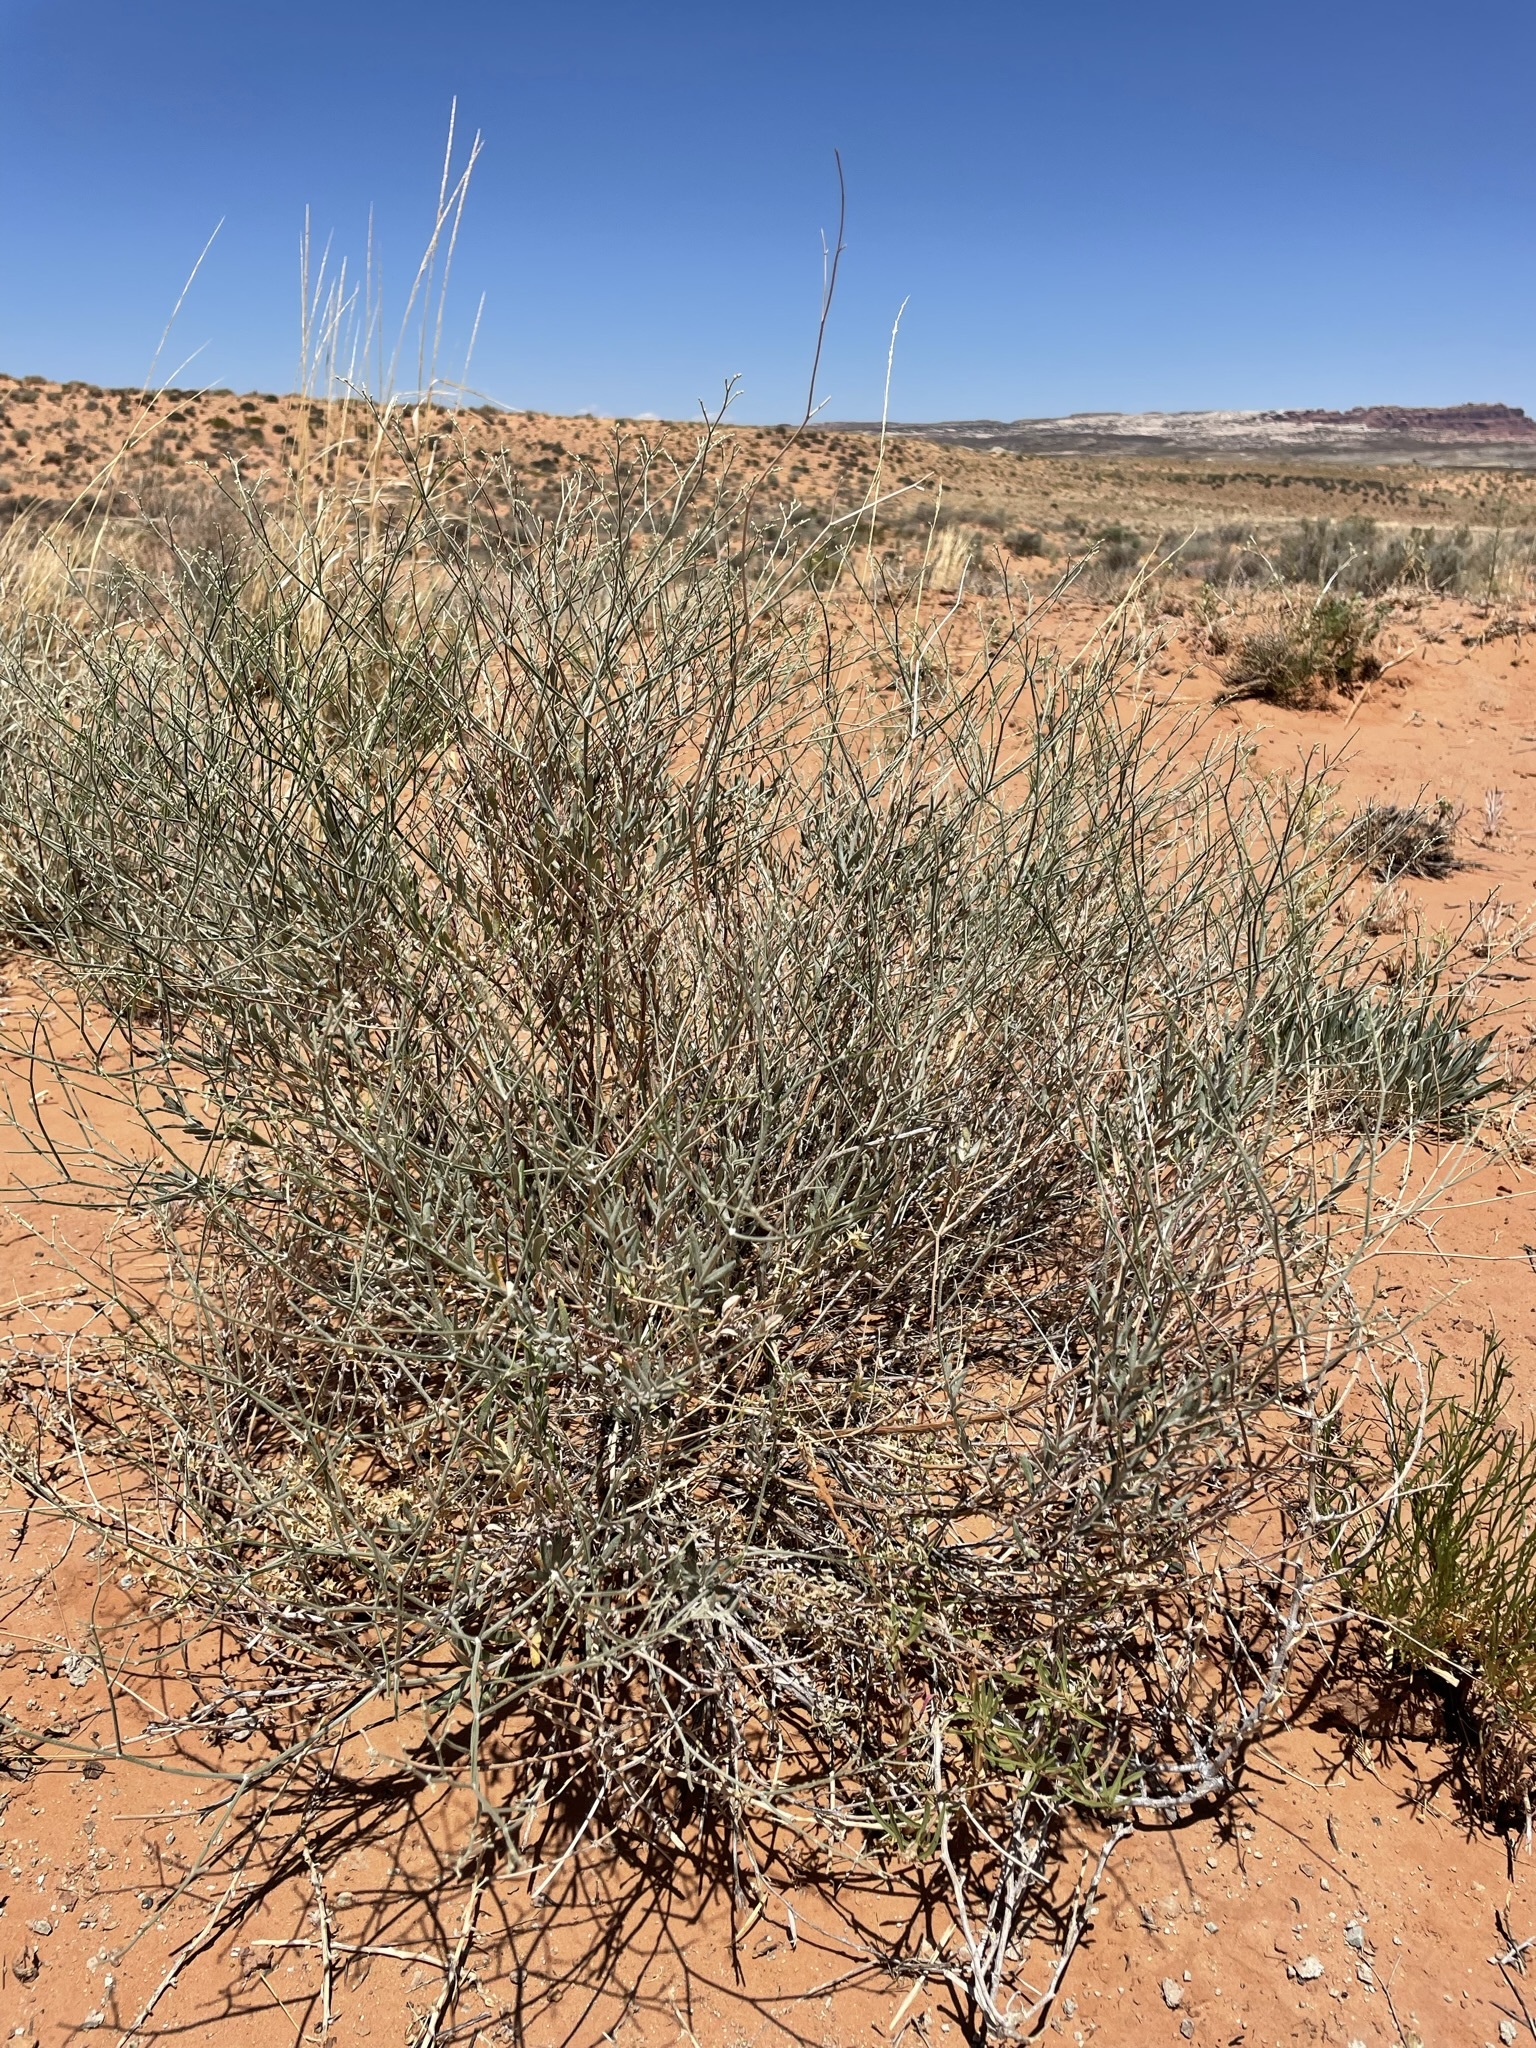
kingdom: Plantae
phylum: Tracheophyta
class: Magnoliopsida
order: Caryophyllales
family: Polygonaceae
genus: Eriogonum
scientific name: Eriogonum leptocladon
